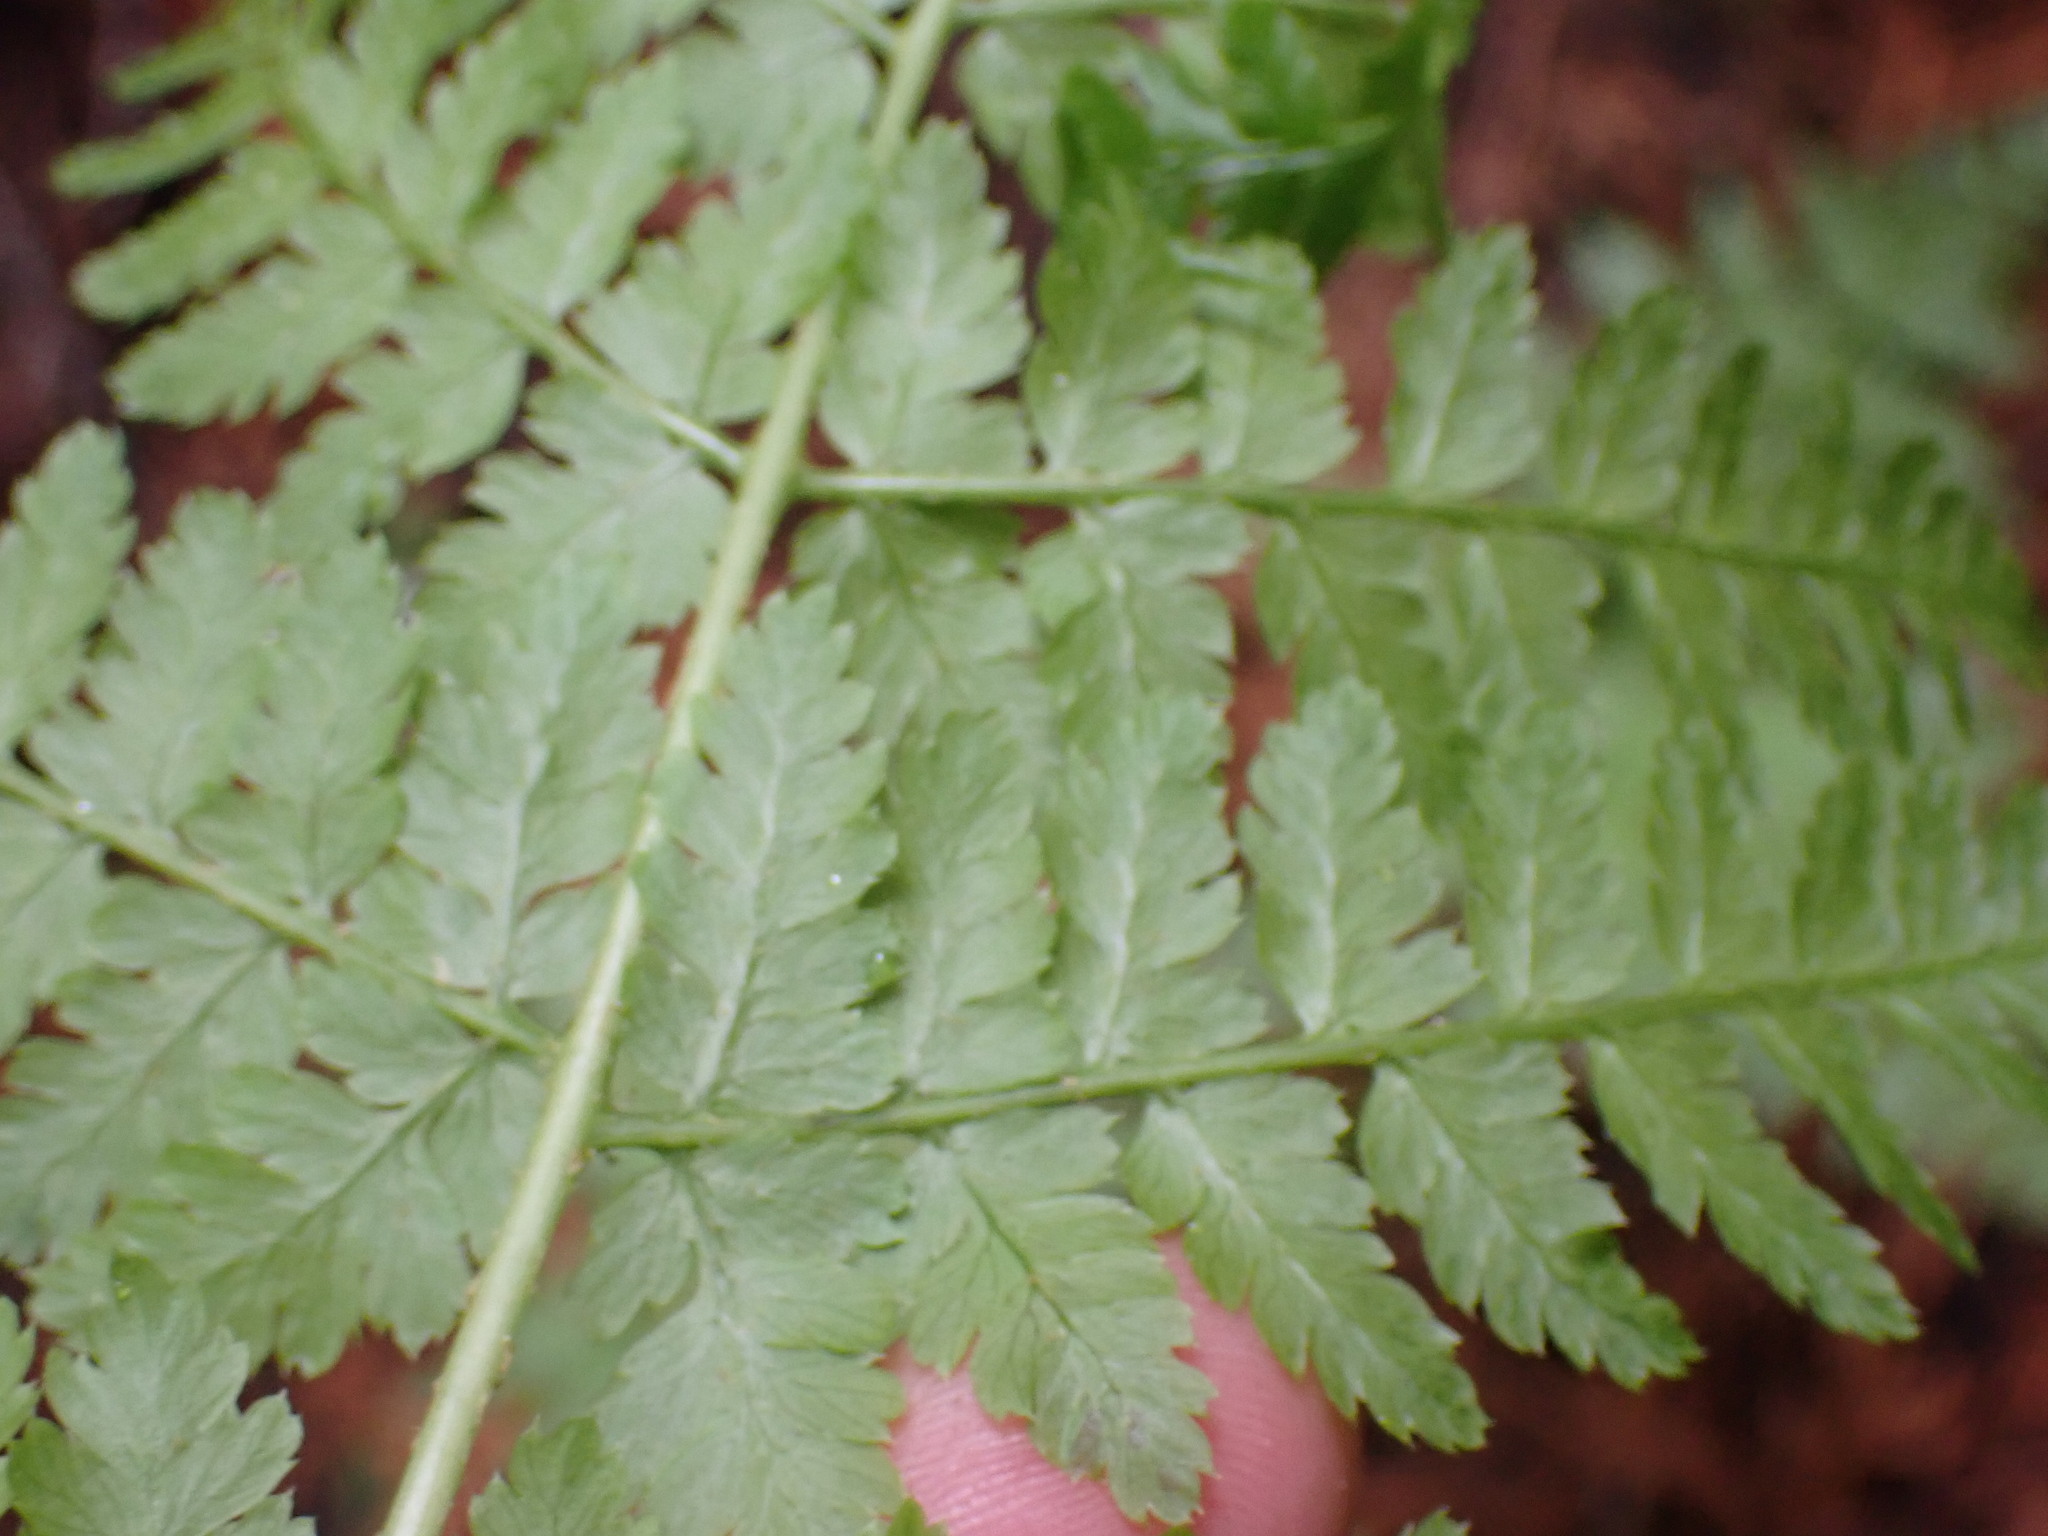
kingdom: Plantae
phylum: Tracheophyta
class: Polypodiopsida
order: Polypodiales
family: Dryopteridaceae
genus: Dryopteris
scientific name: Dryopteris expansa
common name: Northern buckler fern
